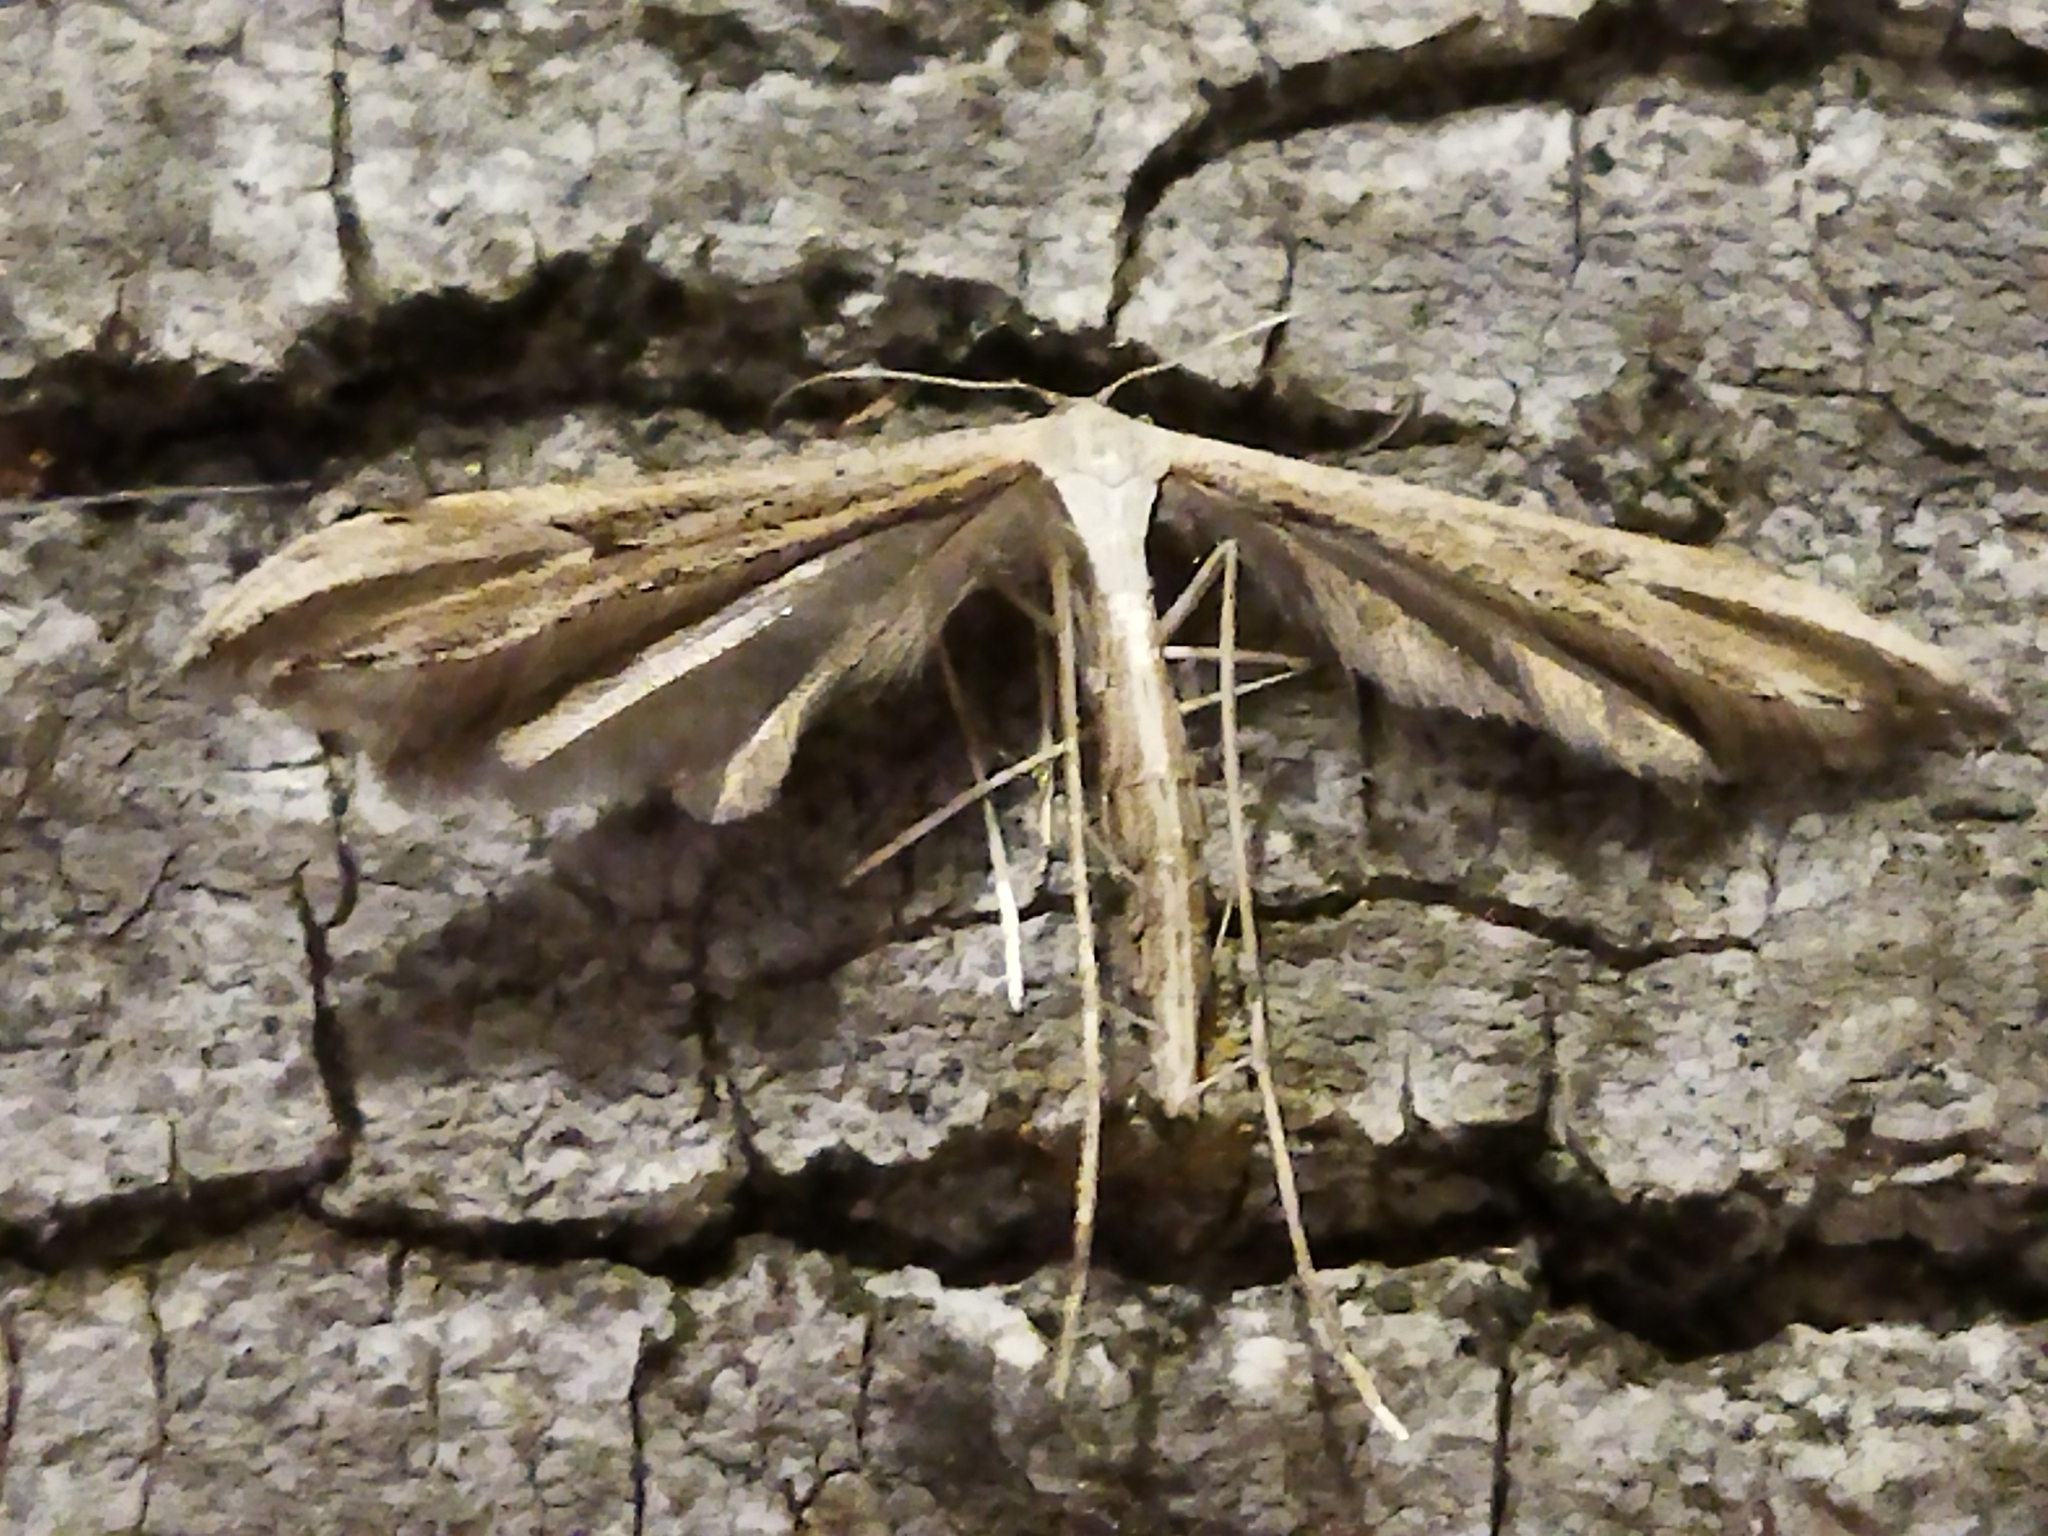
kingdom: Animalia
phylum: Arthropoda
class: Insecta
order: Lepidoptera
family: Pterophoridae
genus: Emmelina
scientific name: Emmelina monodactyla
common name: Common plume
